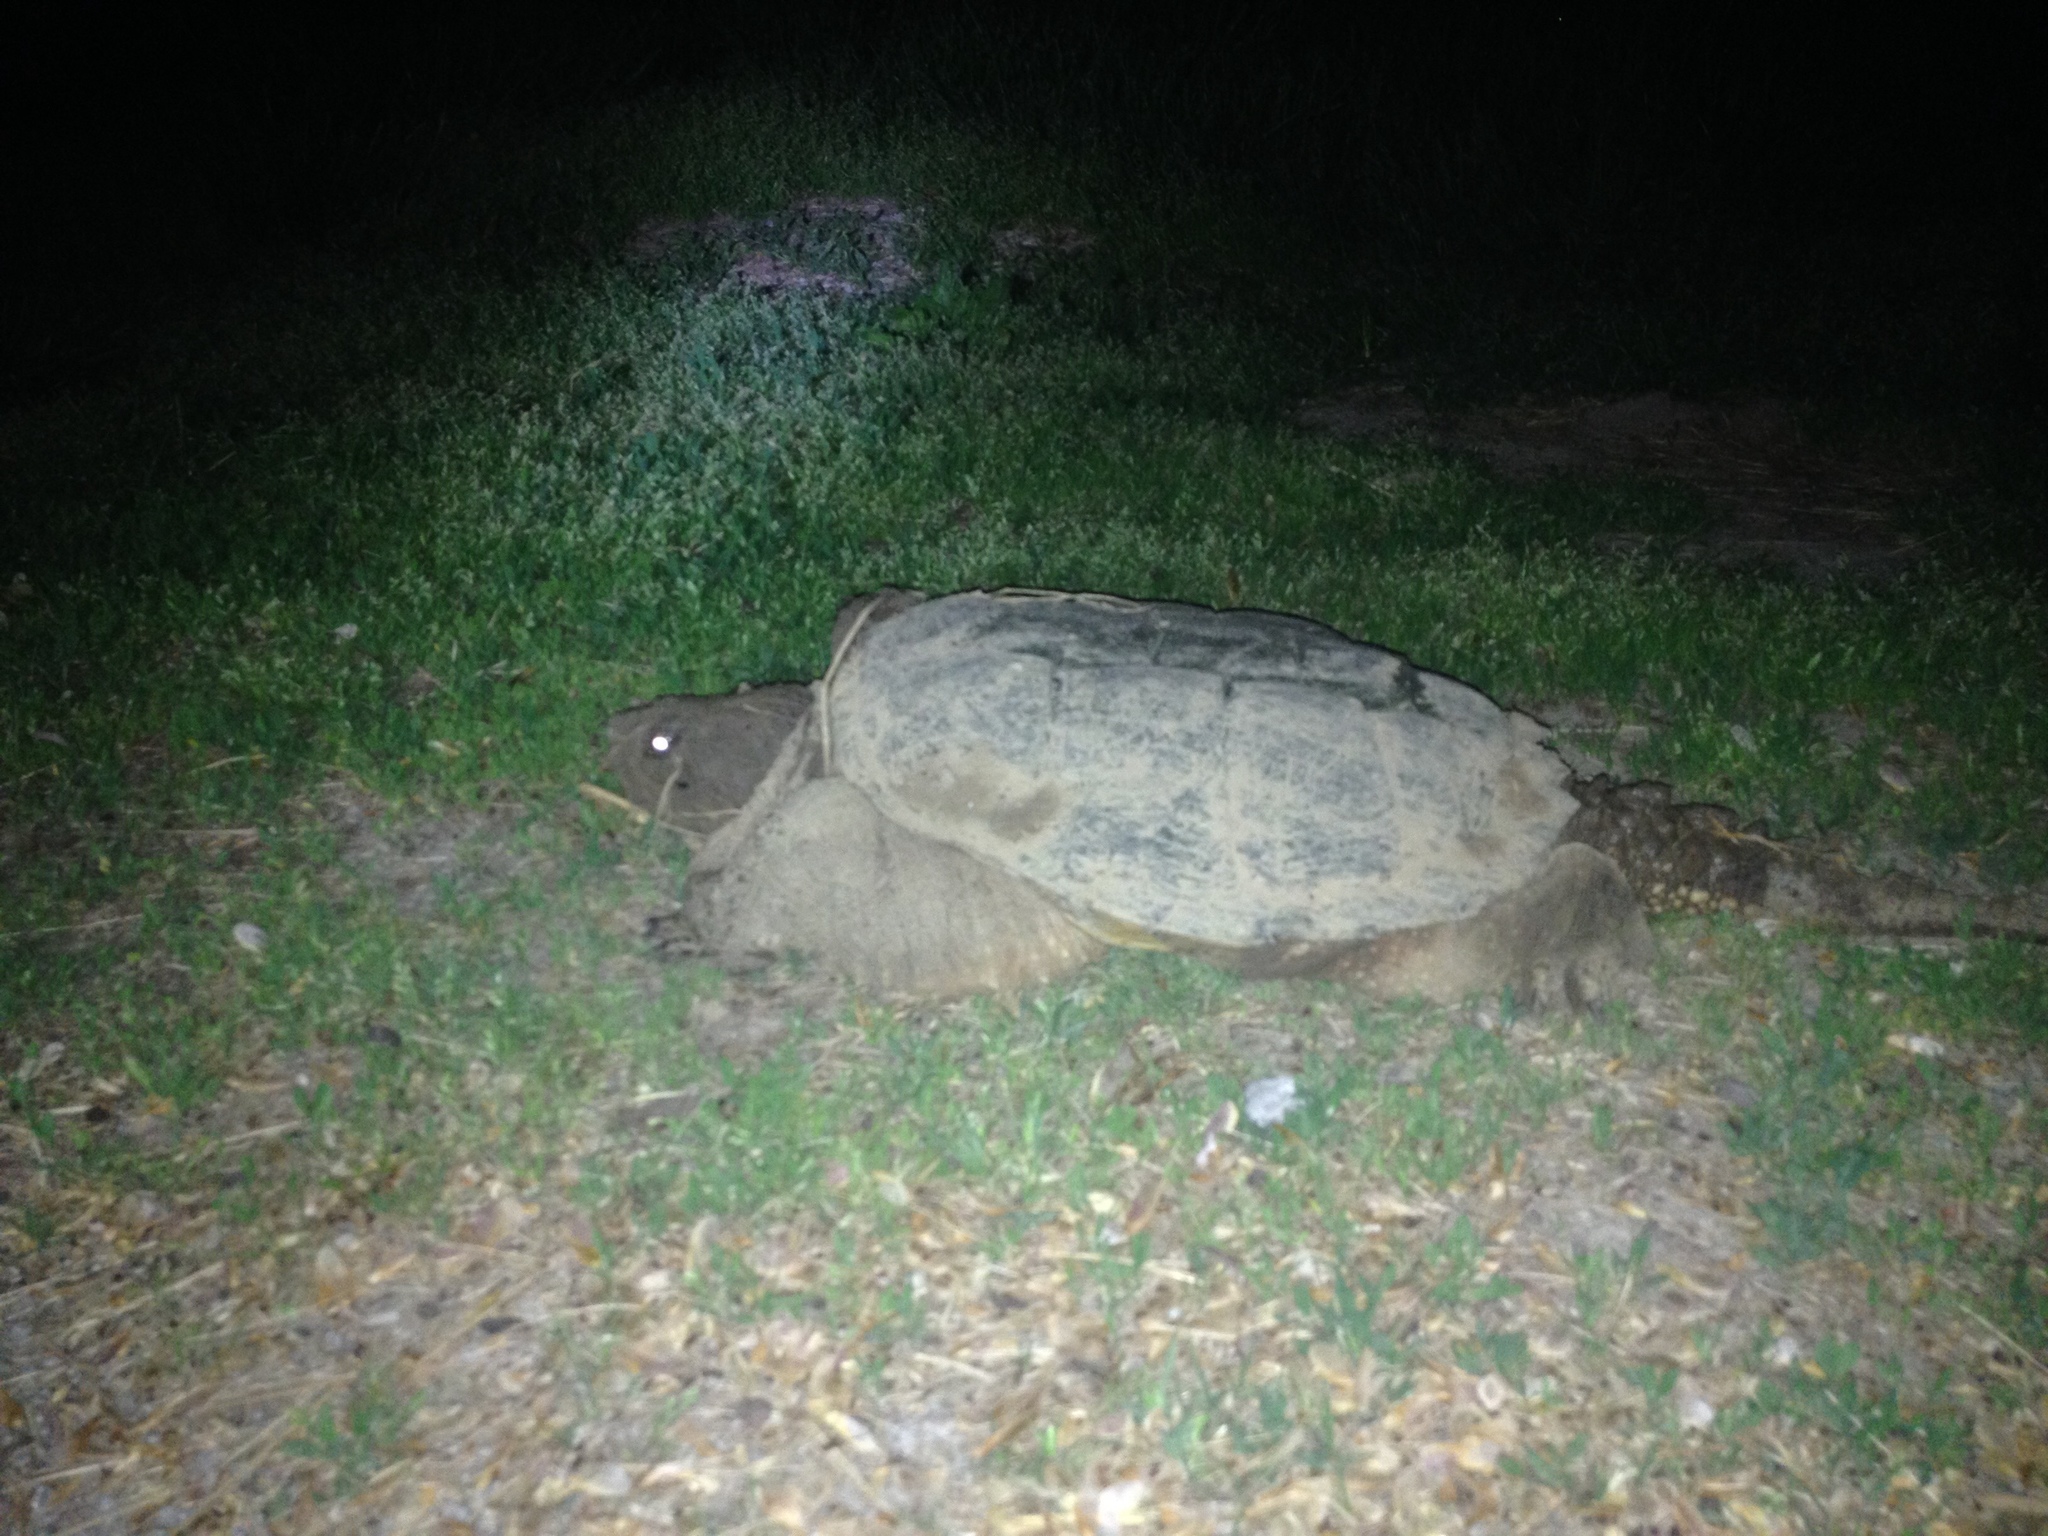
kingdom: Animalia
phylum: Chordata
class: Testudines
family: Chelydridae
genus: Chelydra
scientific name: Chelydra serpentina
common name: Common snapping turtle
